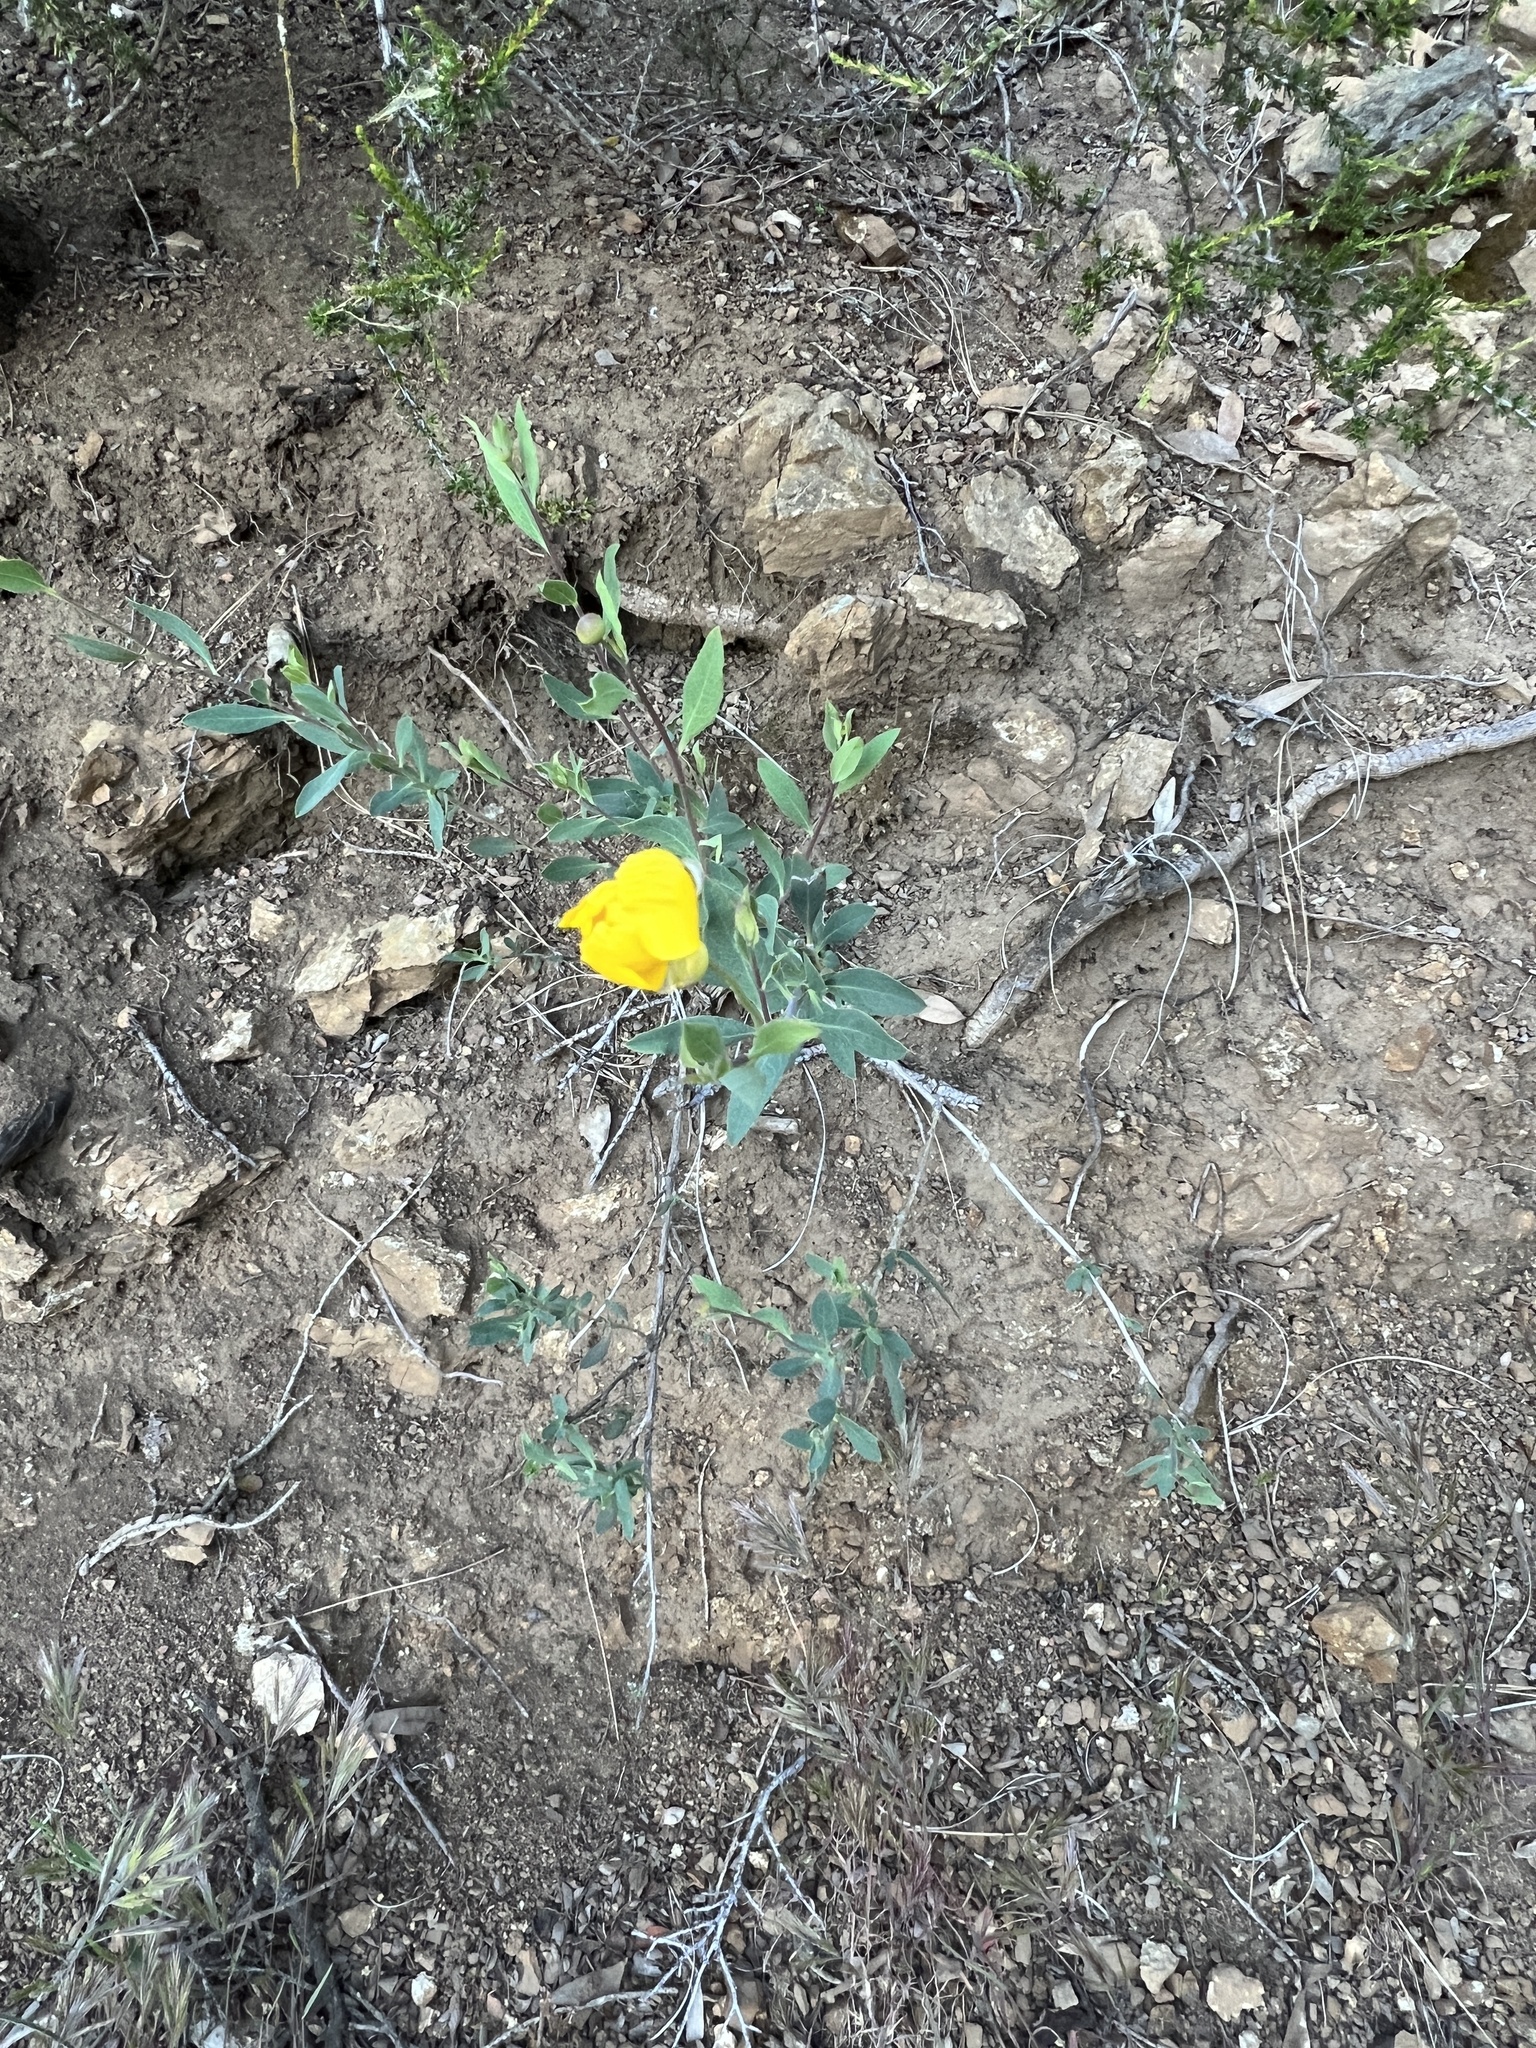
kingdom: Plantae
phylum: Tracheophyta
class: Magnoliopsida
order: Ranunculales
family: Papaveraceae
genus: Dendromecon
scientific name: Dendromecon rigida
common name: Tree poppy
